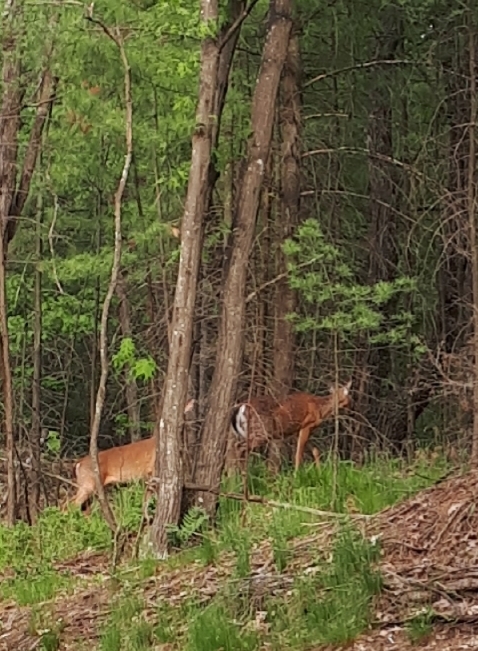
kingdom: Animalia
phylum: Chordata
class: Mammalia
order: Artiodactyla
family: Cervidae
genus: Odocoileus
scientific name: Odocoileus virginianus
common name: White-tailed deer
